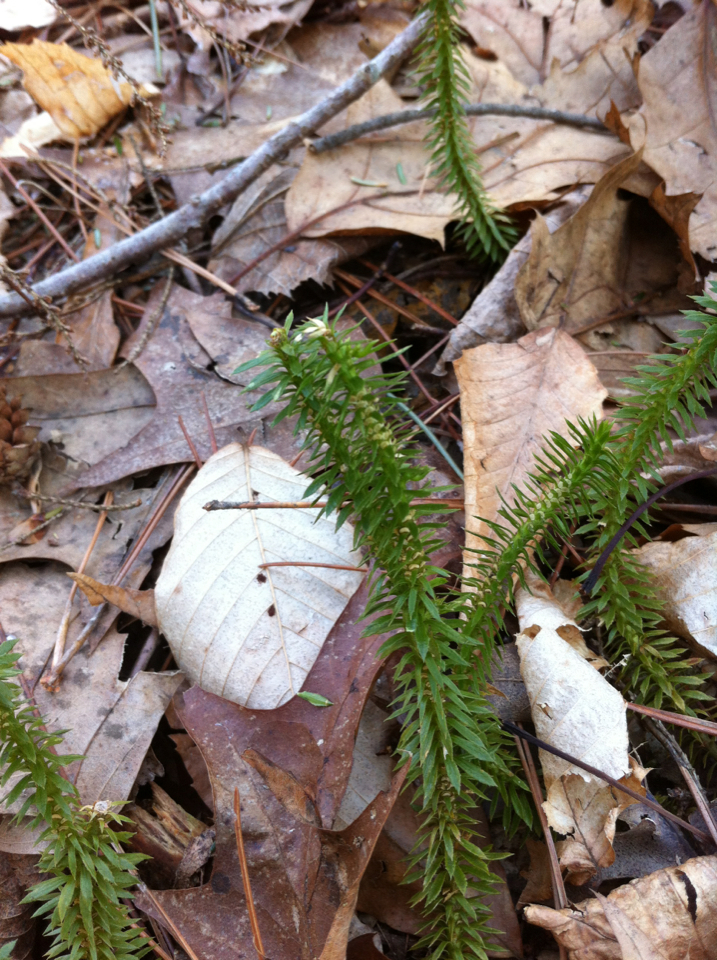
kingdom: Plantae
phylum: Tracheophyta
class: Lycopodiopsida
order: Lycopodiales
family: Lycopodiaceae
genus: Huperzia
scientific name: Huperzia lucidula
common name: Shining clubmoss
